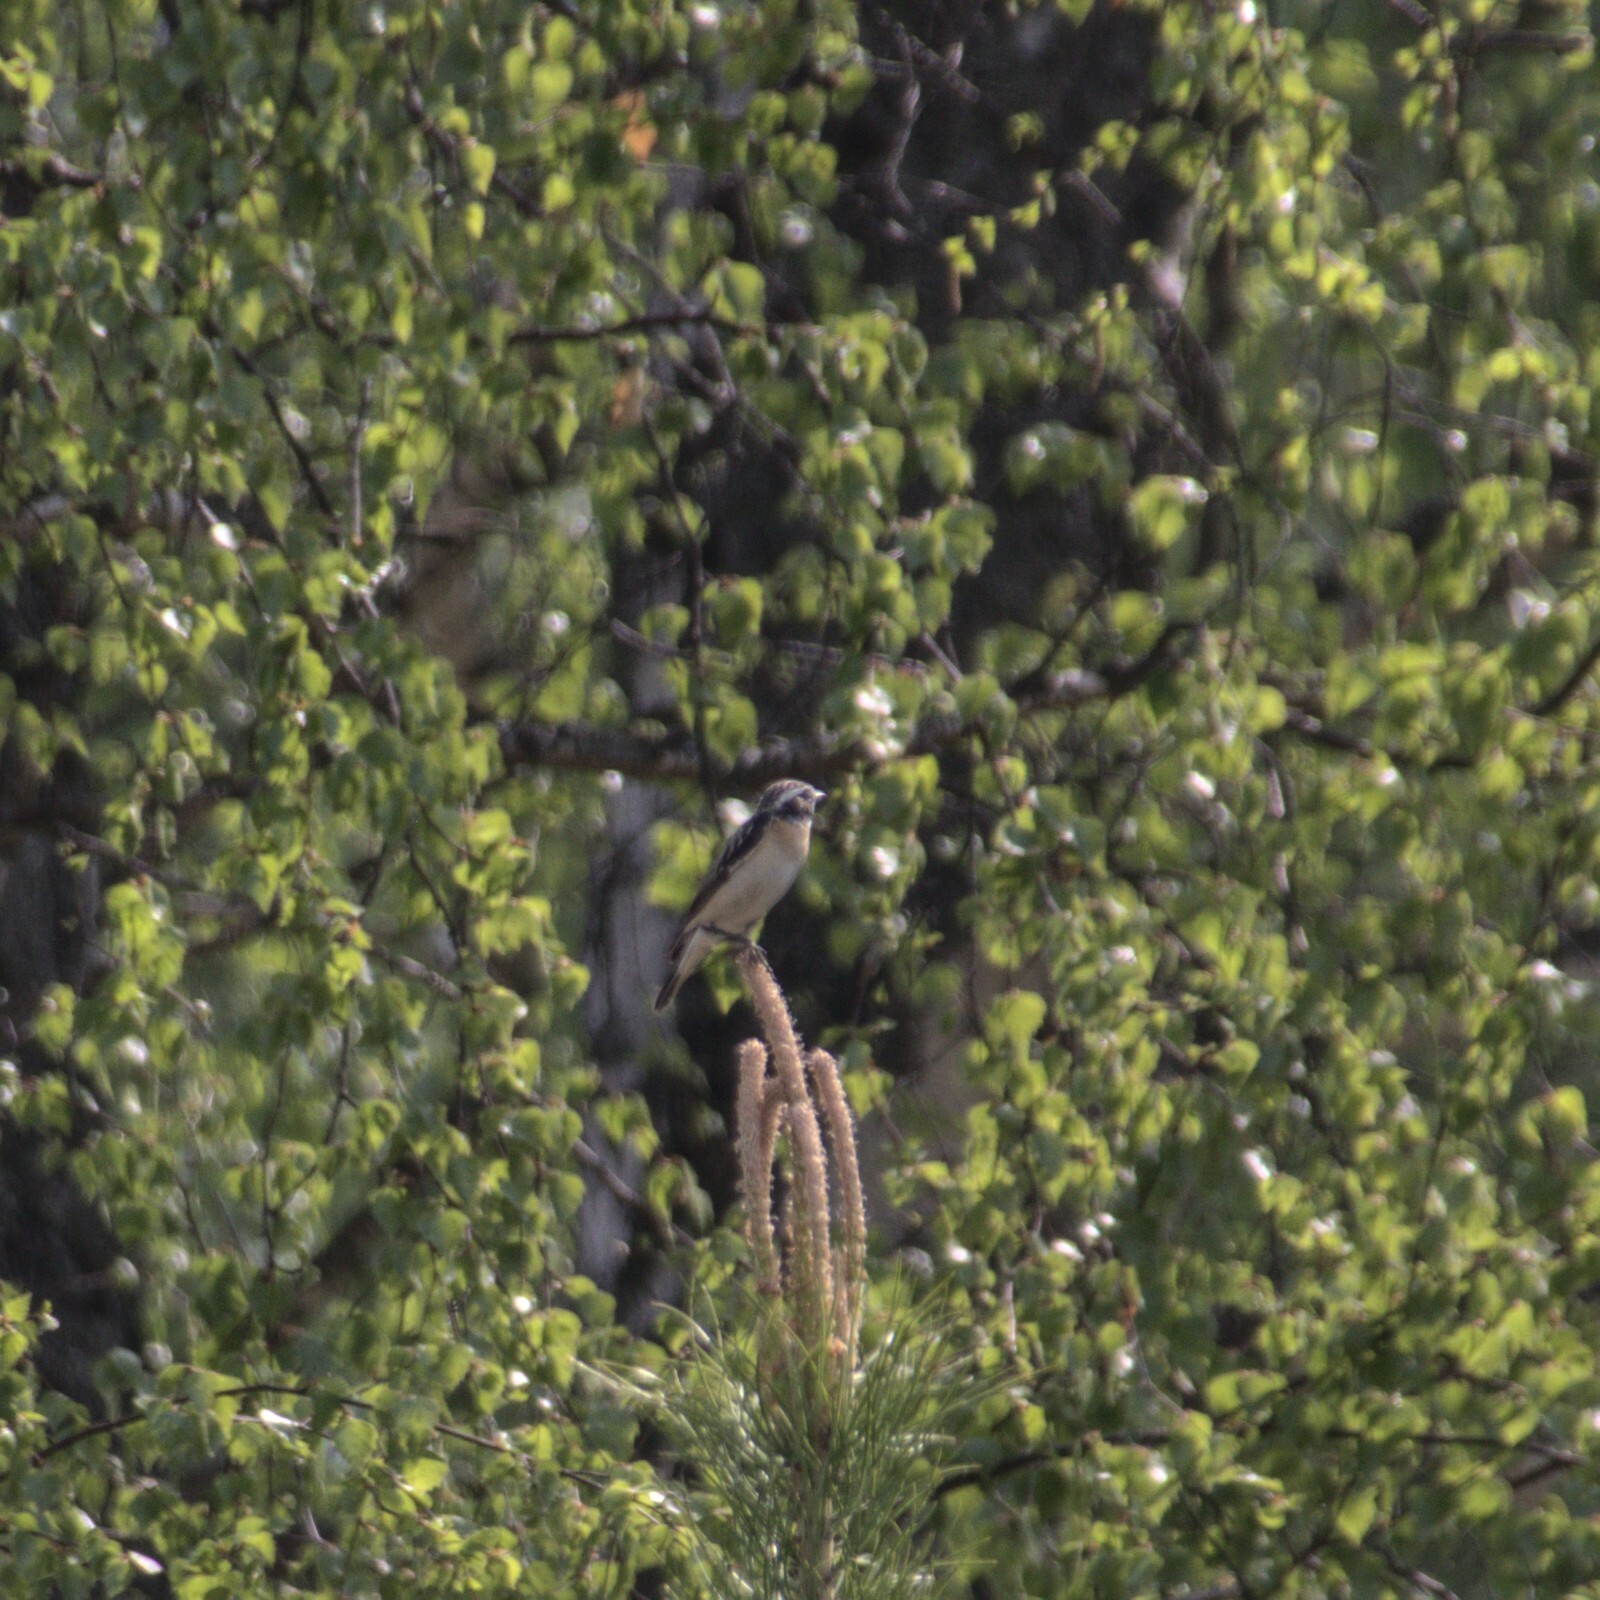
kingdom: Animalia
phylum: Chordata
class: Aves
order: Passeriformes
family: Muscicapidae
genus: Saxicola
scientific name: Saxicola rubetra
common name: Whinchat
